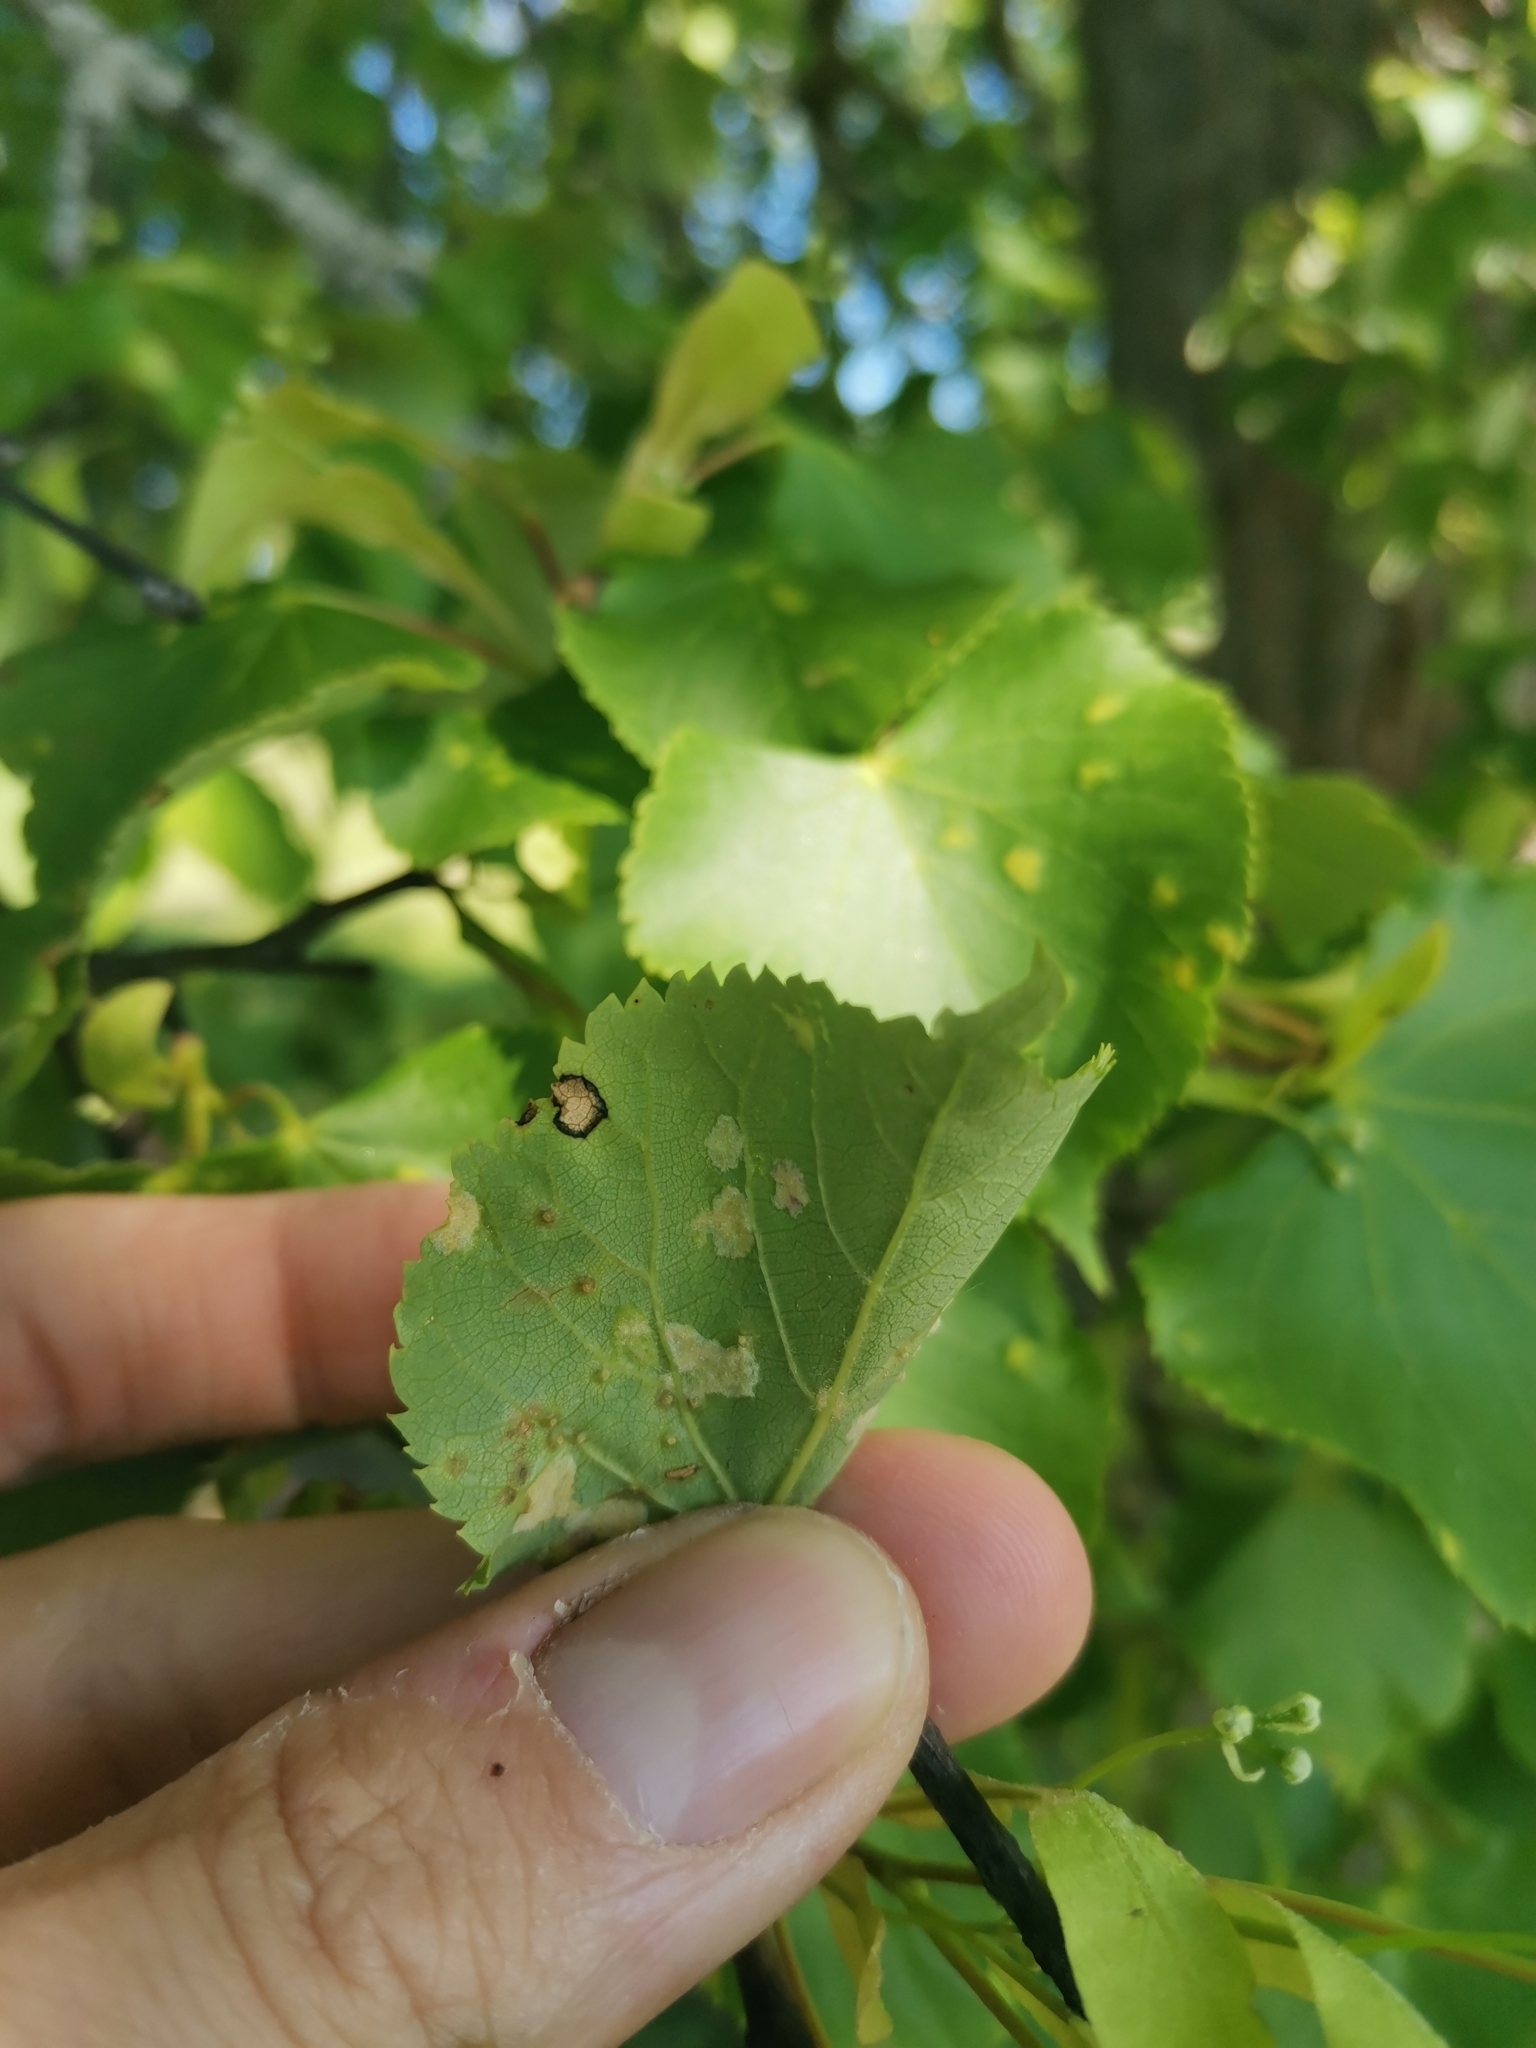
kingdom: Animalia
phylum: Arthropoda
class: Arachnida
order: Trombidiformes
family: Eriophyidae
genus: Eriophyes
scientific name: Eriophyes tiliae
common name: Red nail gall mite
